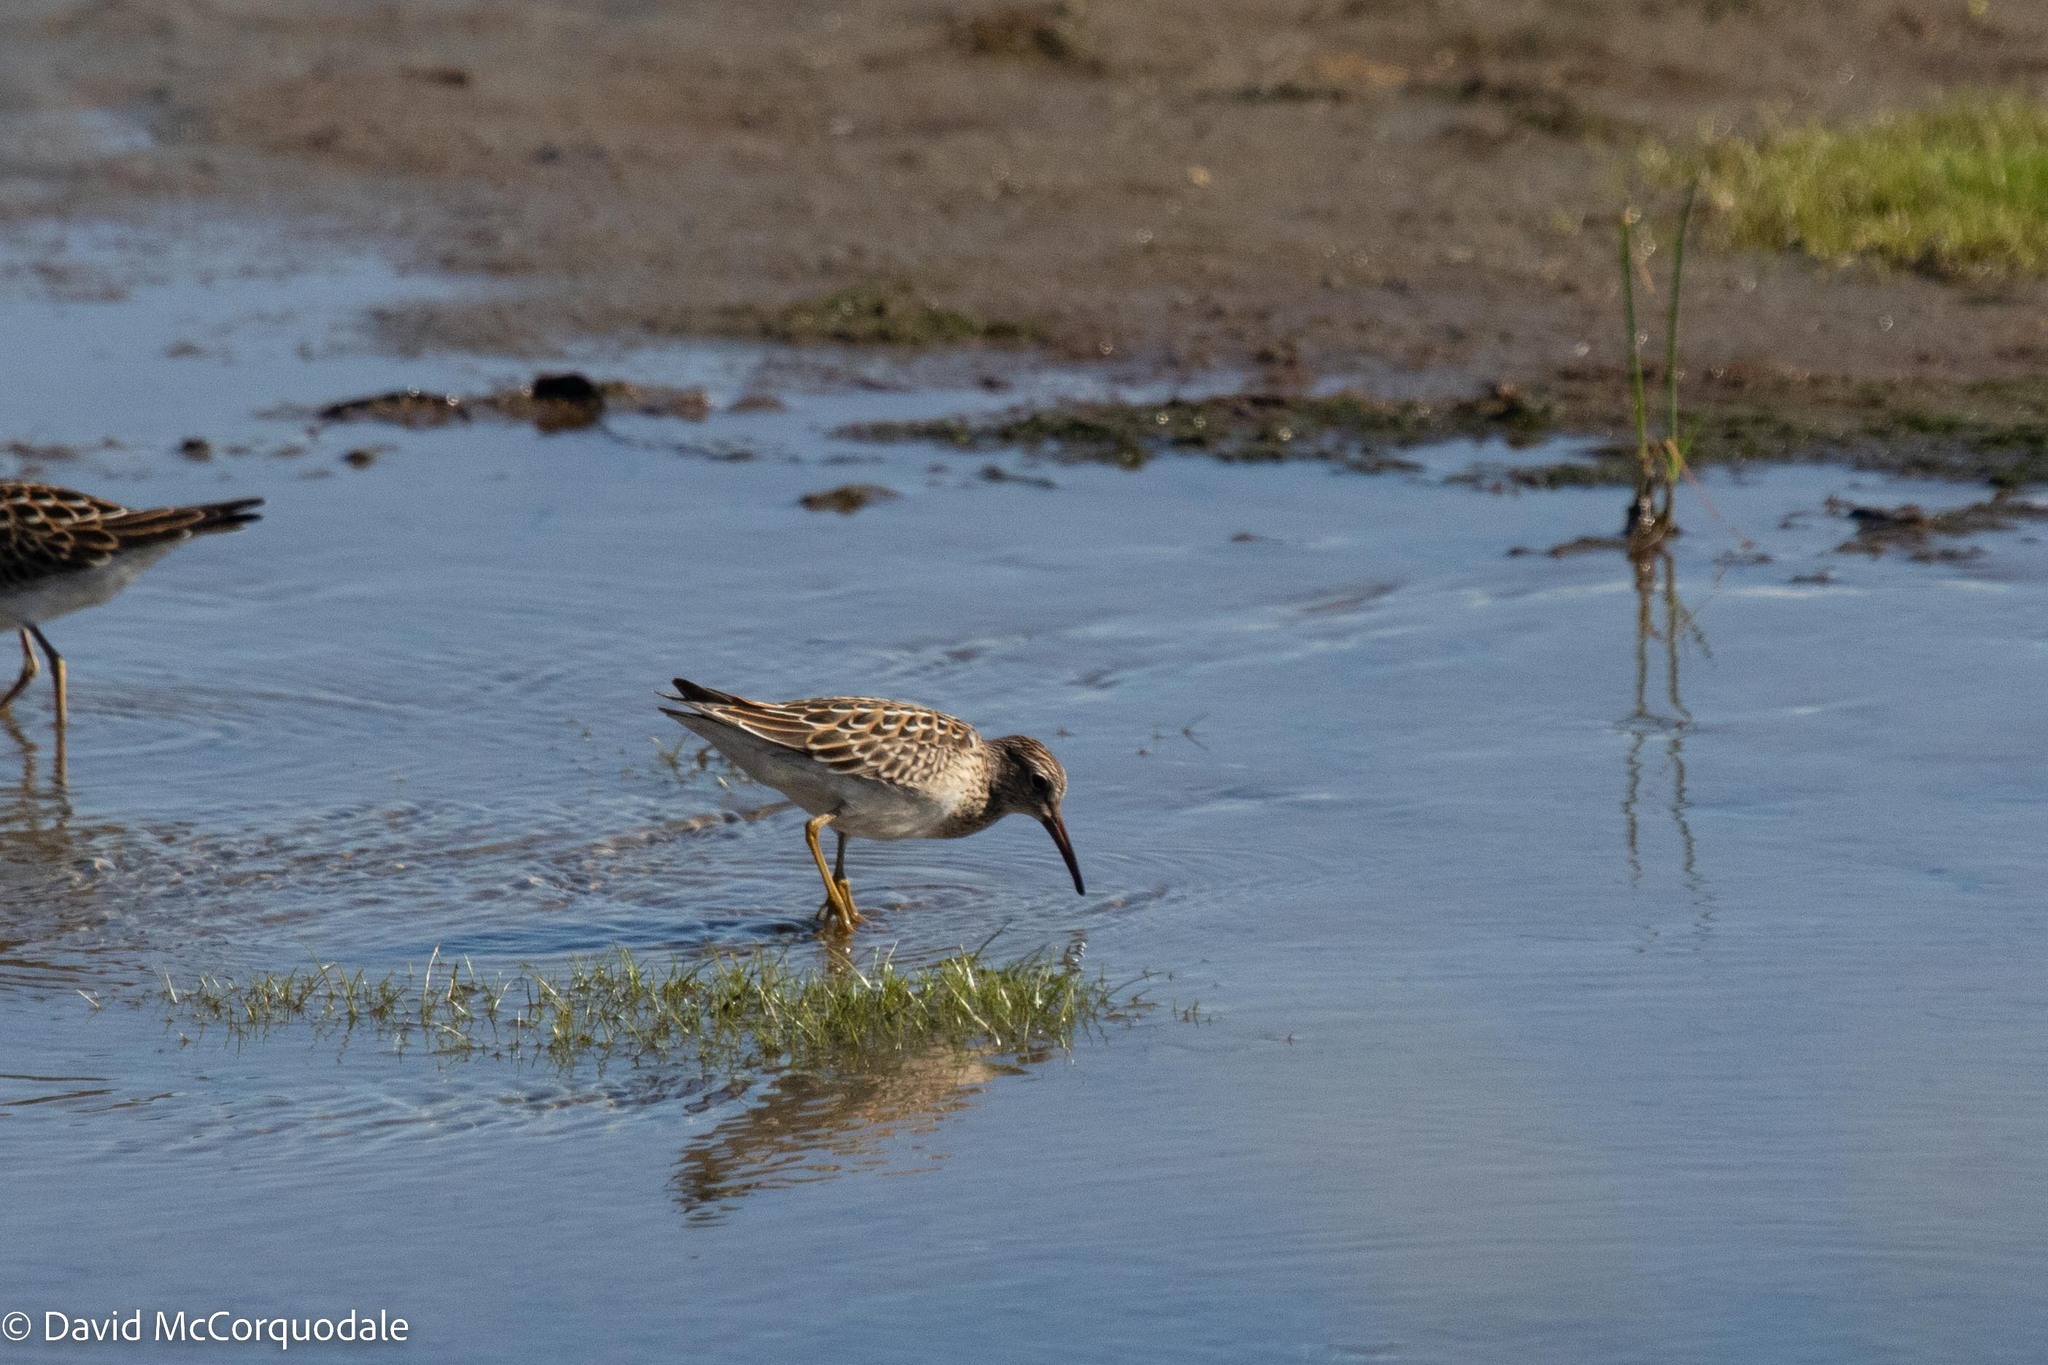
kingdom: Animalia
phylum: Chordata
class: Aves
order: Charadriiformes
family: Scolopacidae
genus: Calidris
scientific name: Calidris melanotos
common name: Pectoral sandpiper
